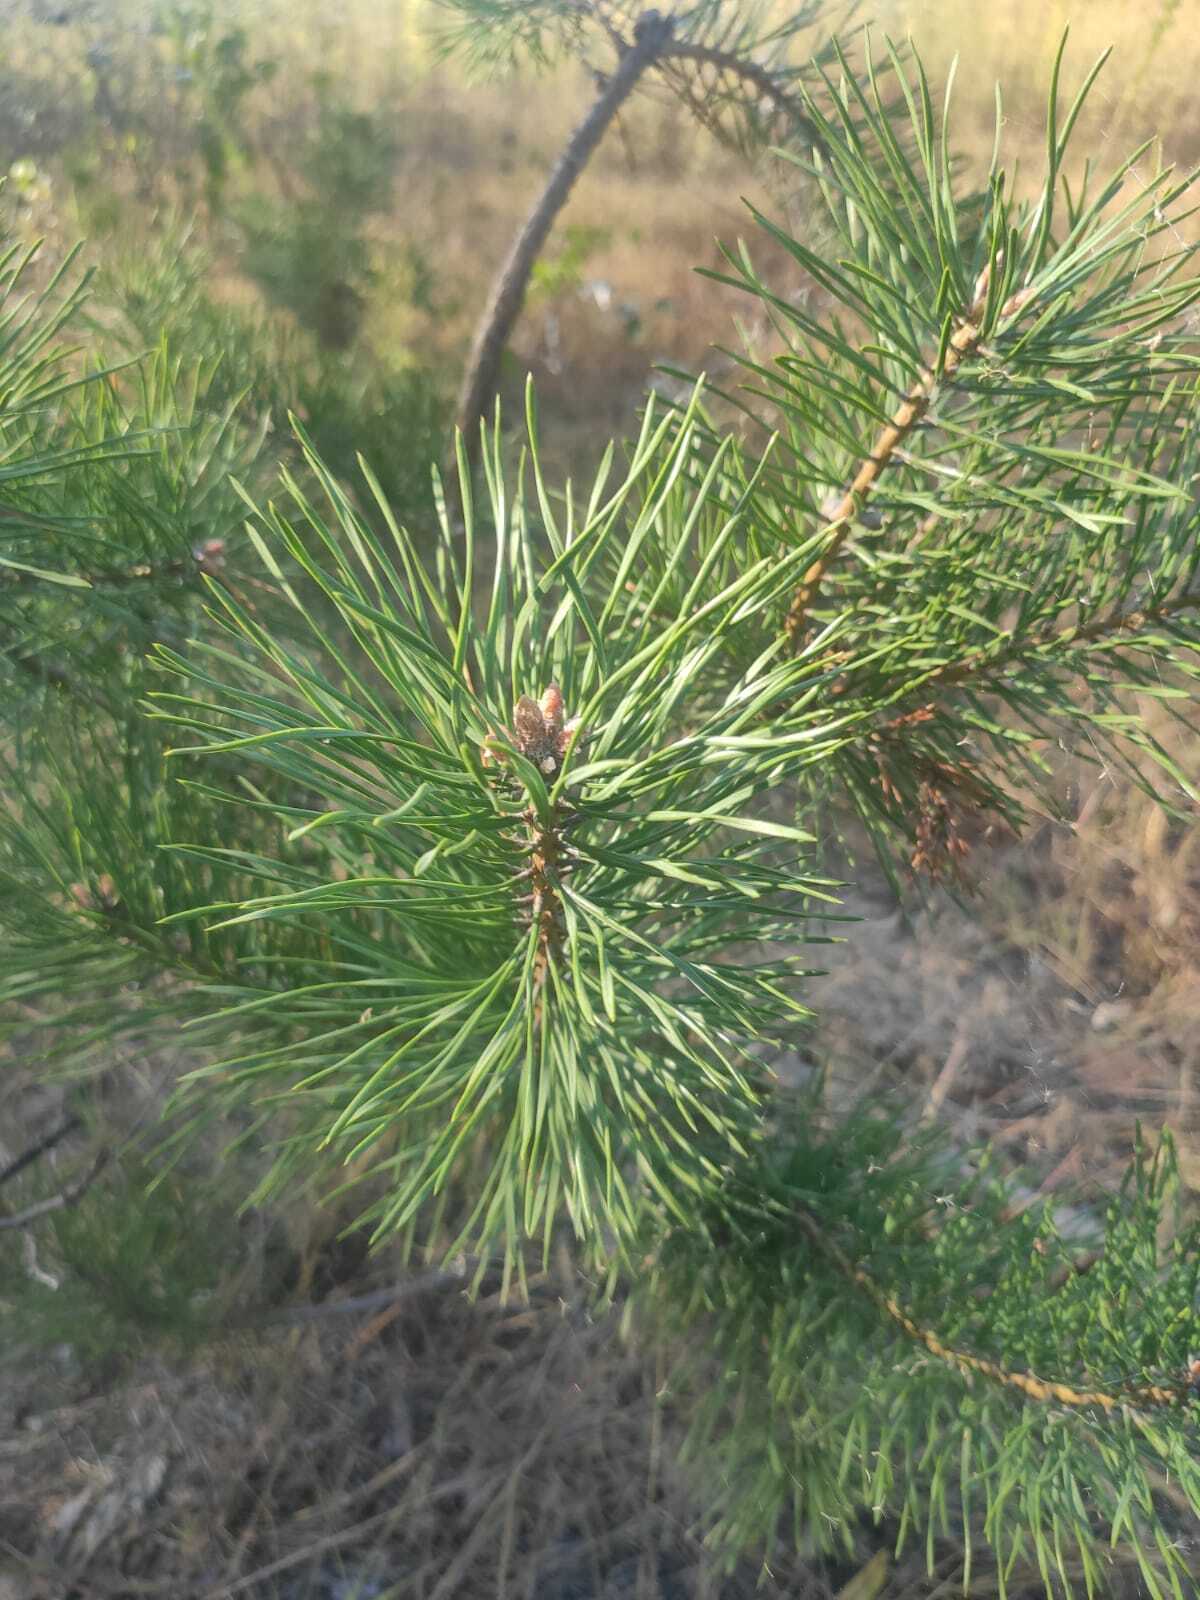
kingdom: Plantae
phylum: Tracheophyta
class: Pinopsida
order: Pinales
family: Pinaceae
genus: Pinus
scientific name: Pinus sylvestris
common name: Scots pine
